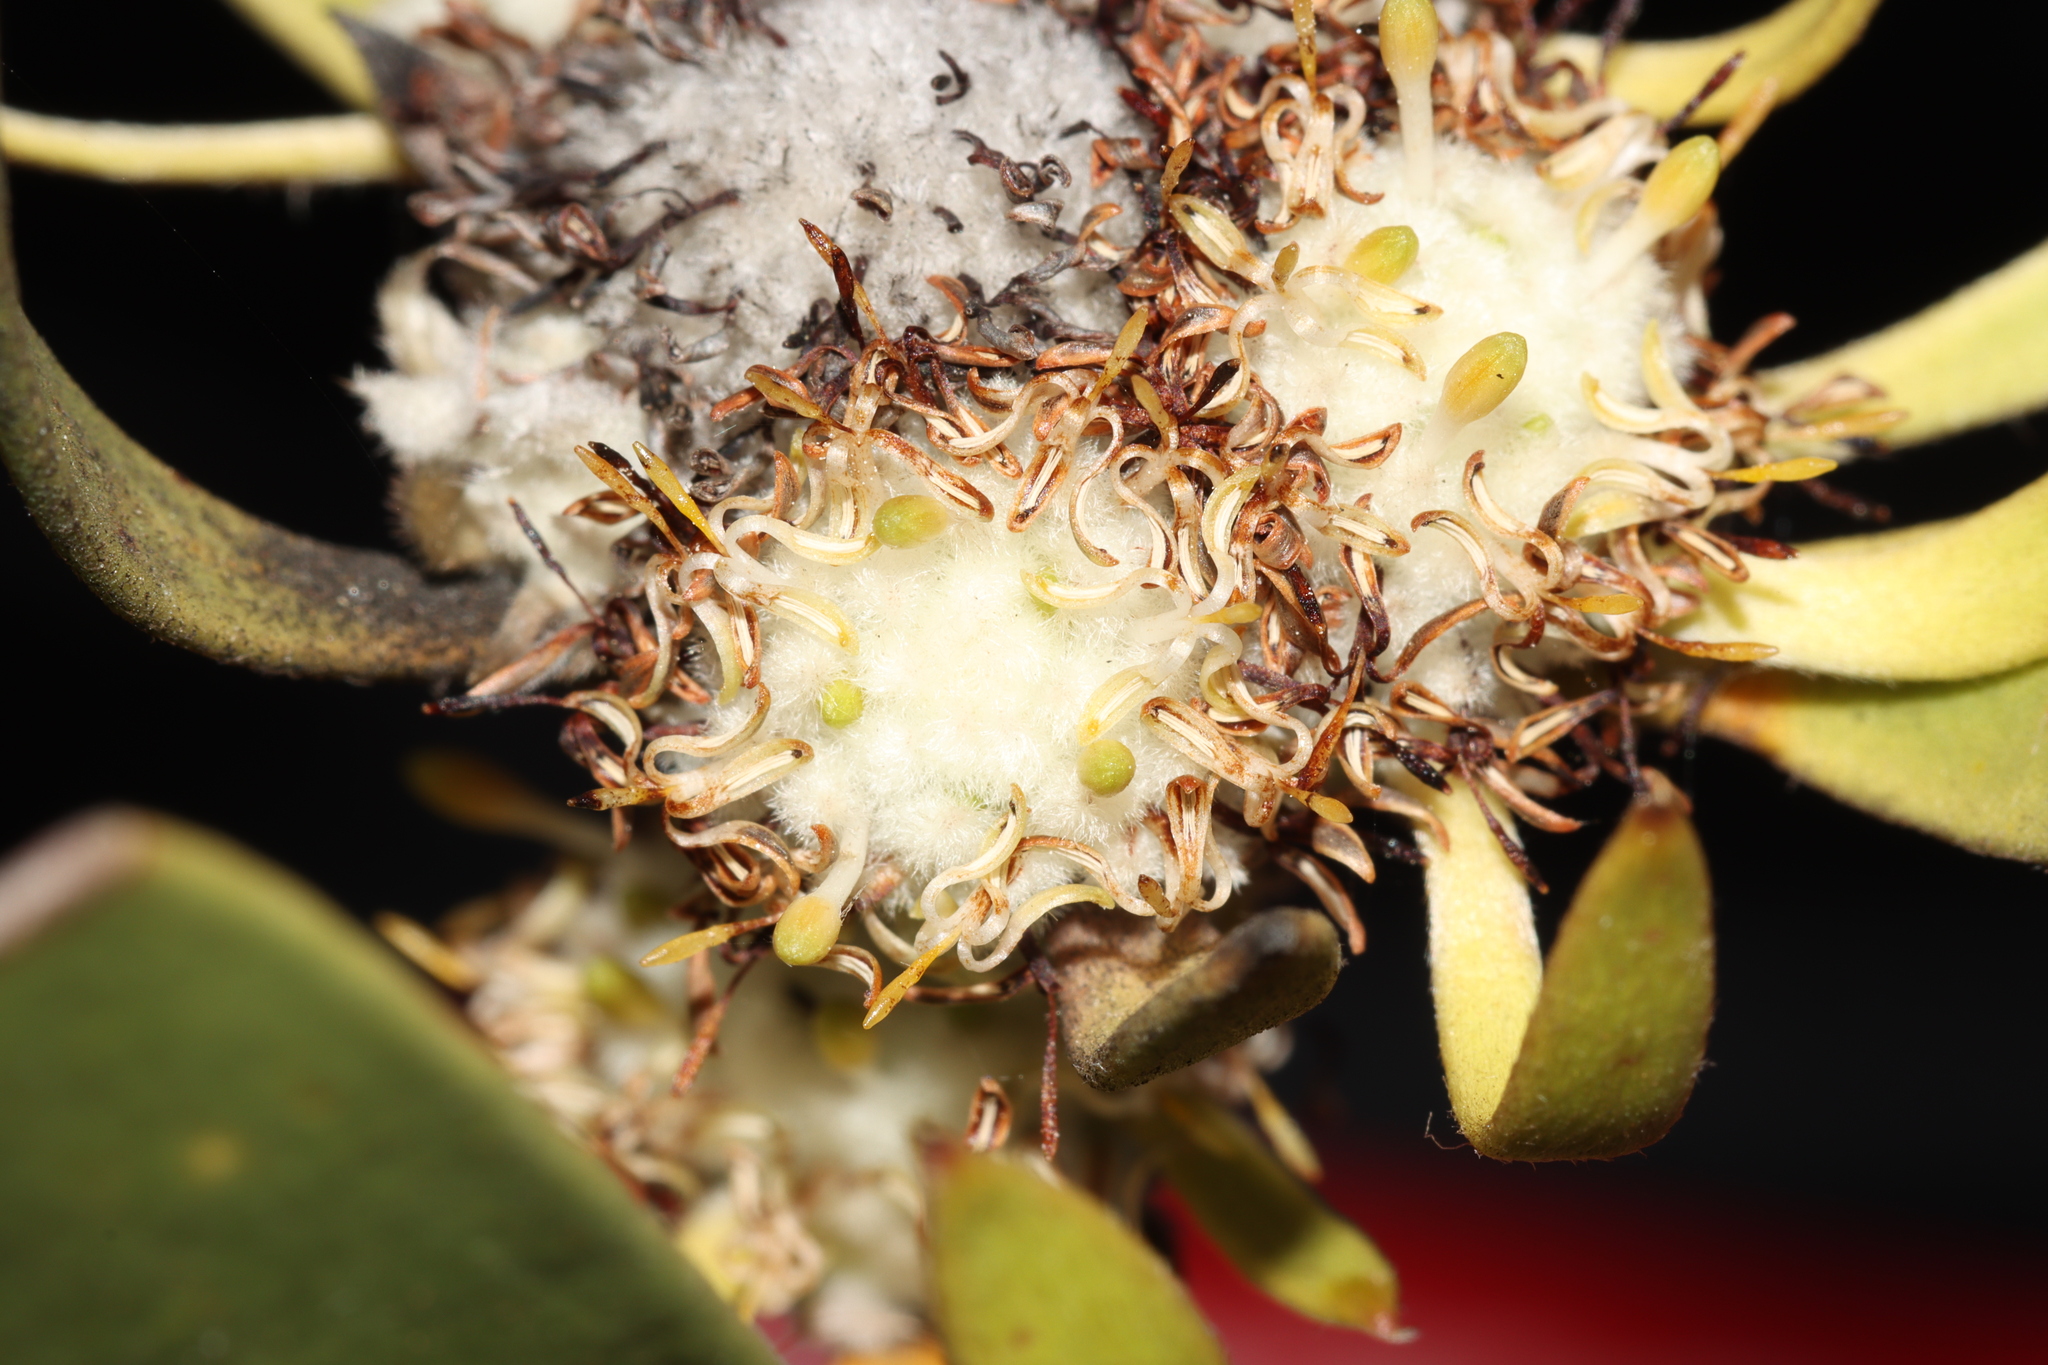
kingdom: Plantae
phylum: Tracheophyta
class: Magnoliopsida
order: Proteales
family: Proteaceae
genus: Isopogon
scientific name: Isopogon
